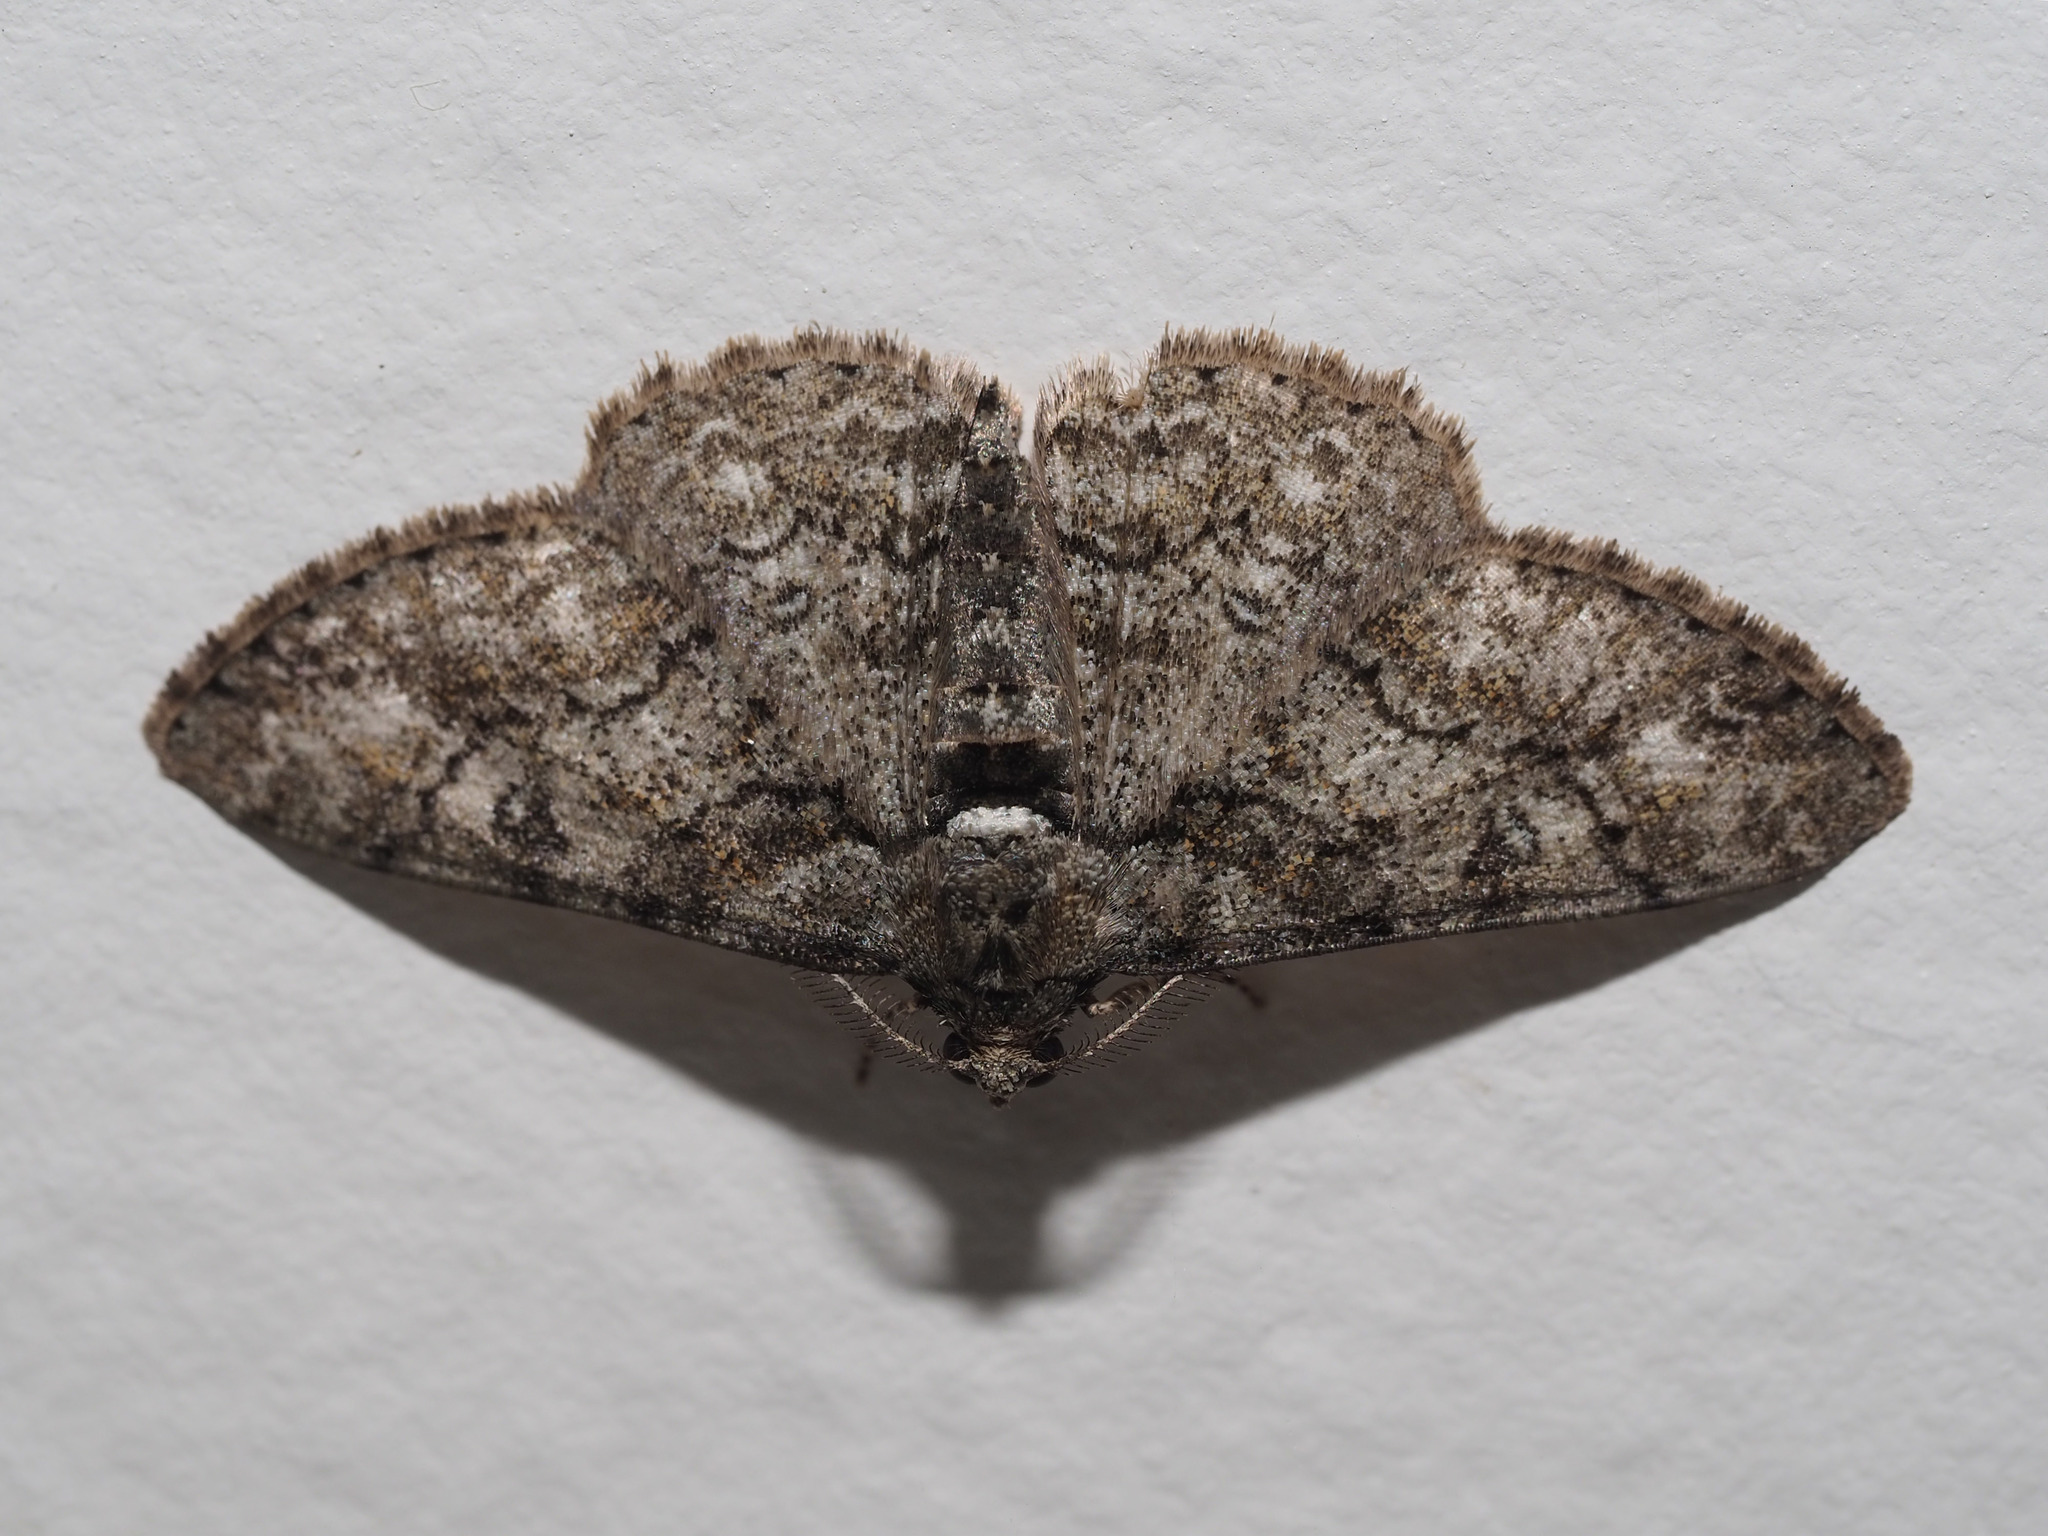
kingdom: Animalia
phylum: Arthropoda
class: Insecta
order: Lepidoptera
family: Geometridae
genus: Cleora
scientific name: Cleora sublunaria
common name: Double-lined gray
